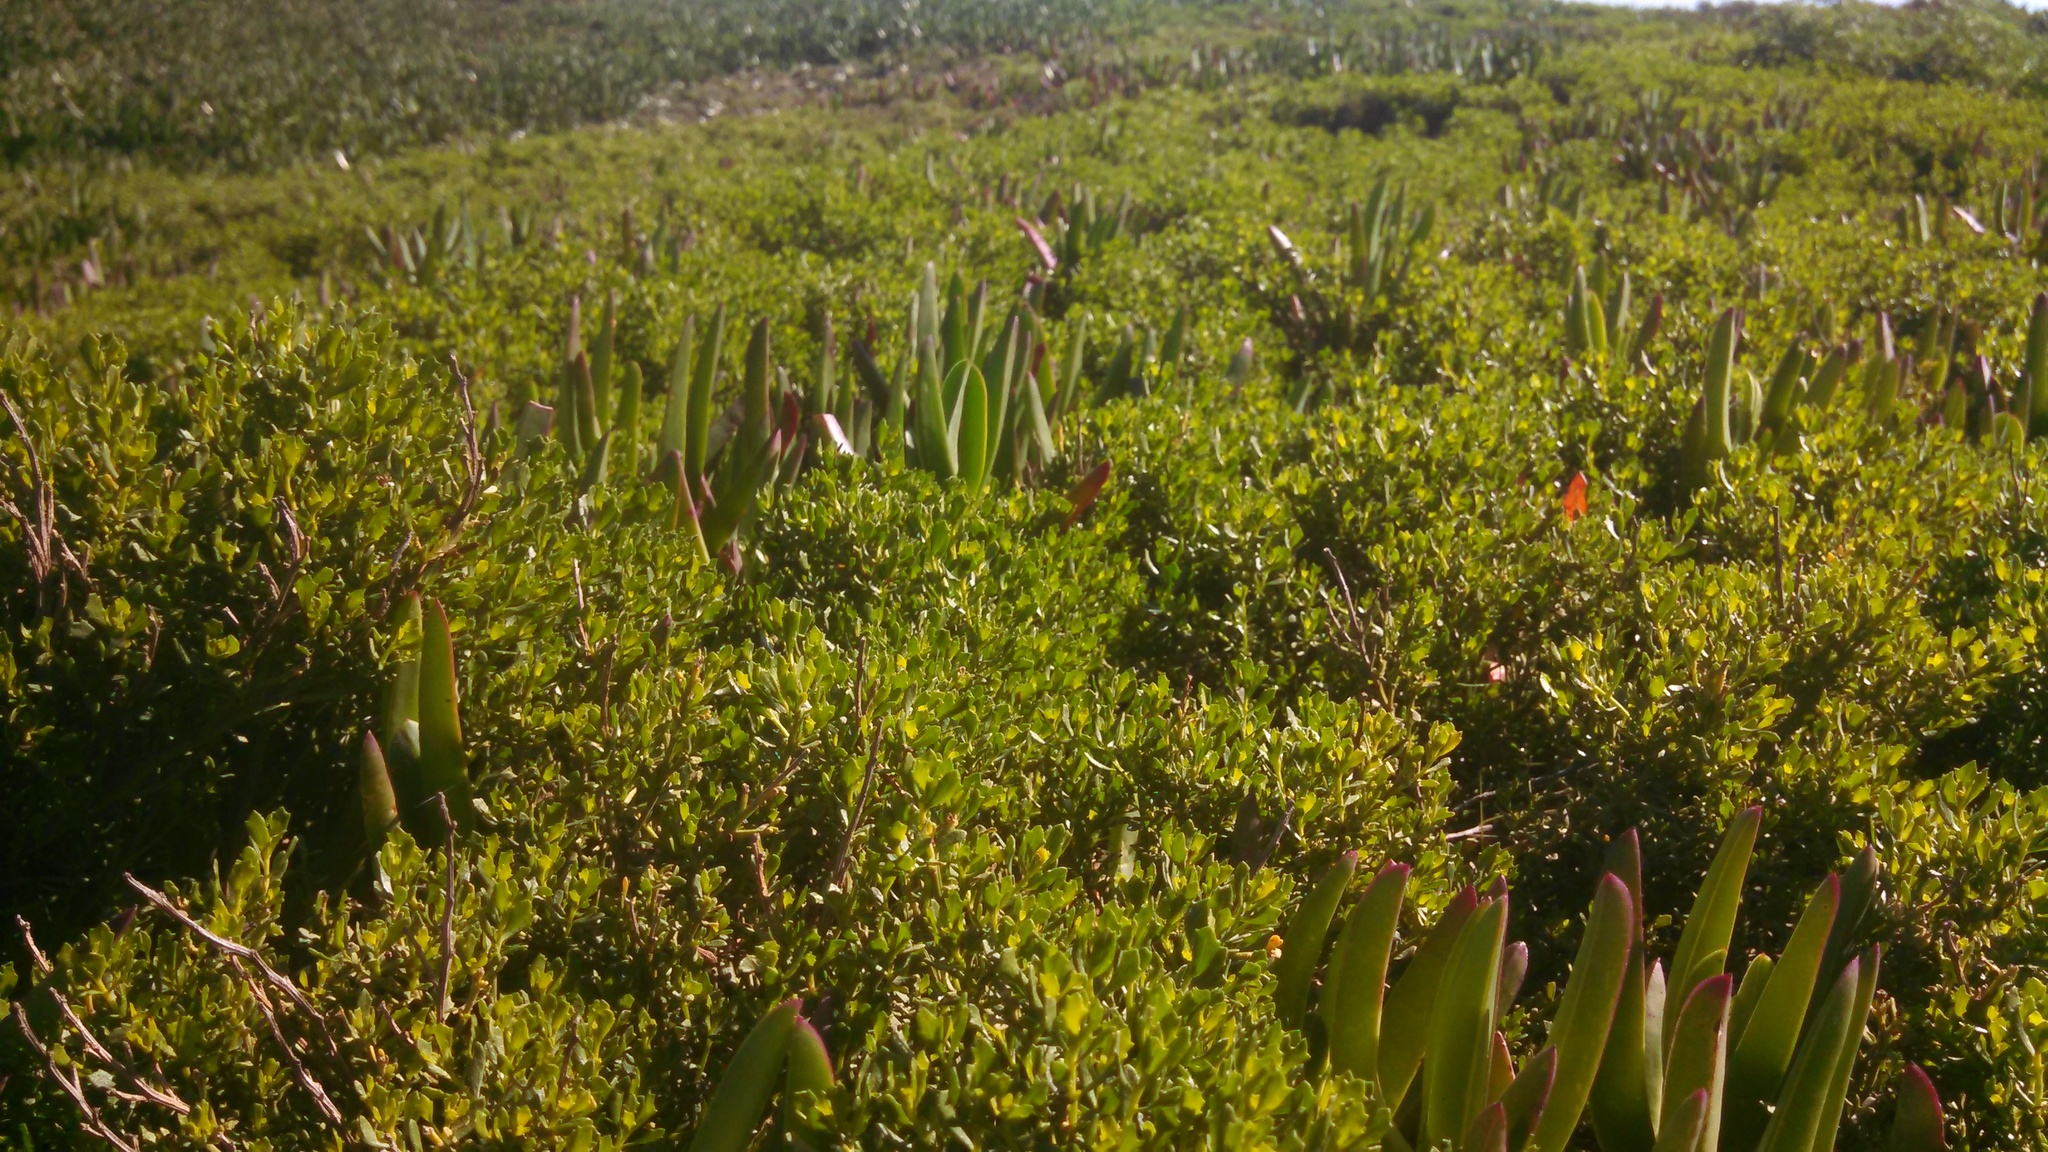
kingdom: Plantae
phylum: Tracheophyta
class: Magnoliopsida
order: Asterales
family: Asteraceae
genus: Baccharis
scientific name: Baccharis pilularis
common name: Coyotebrush
